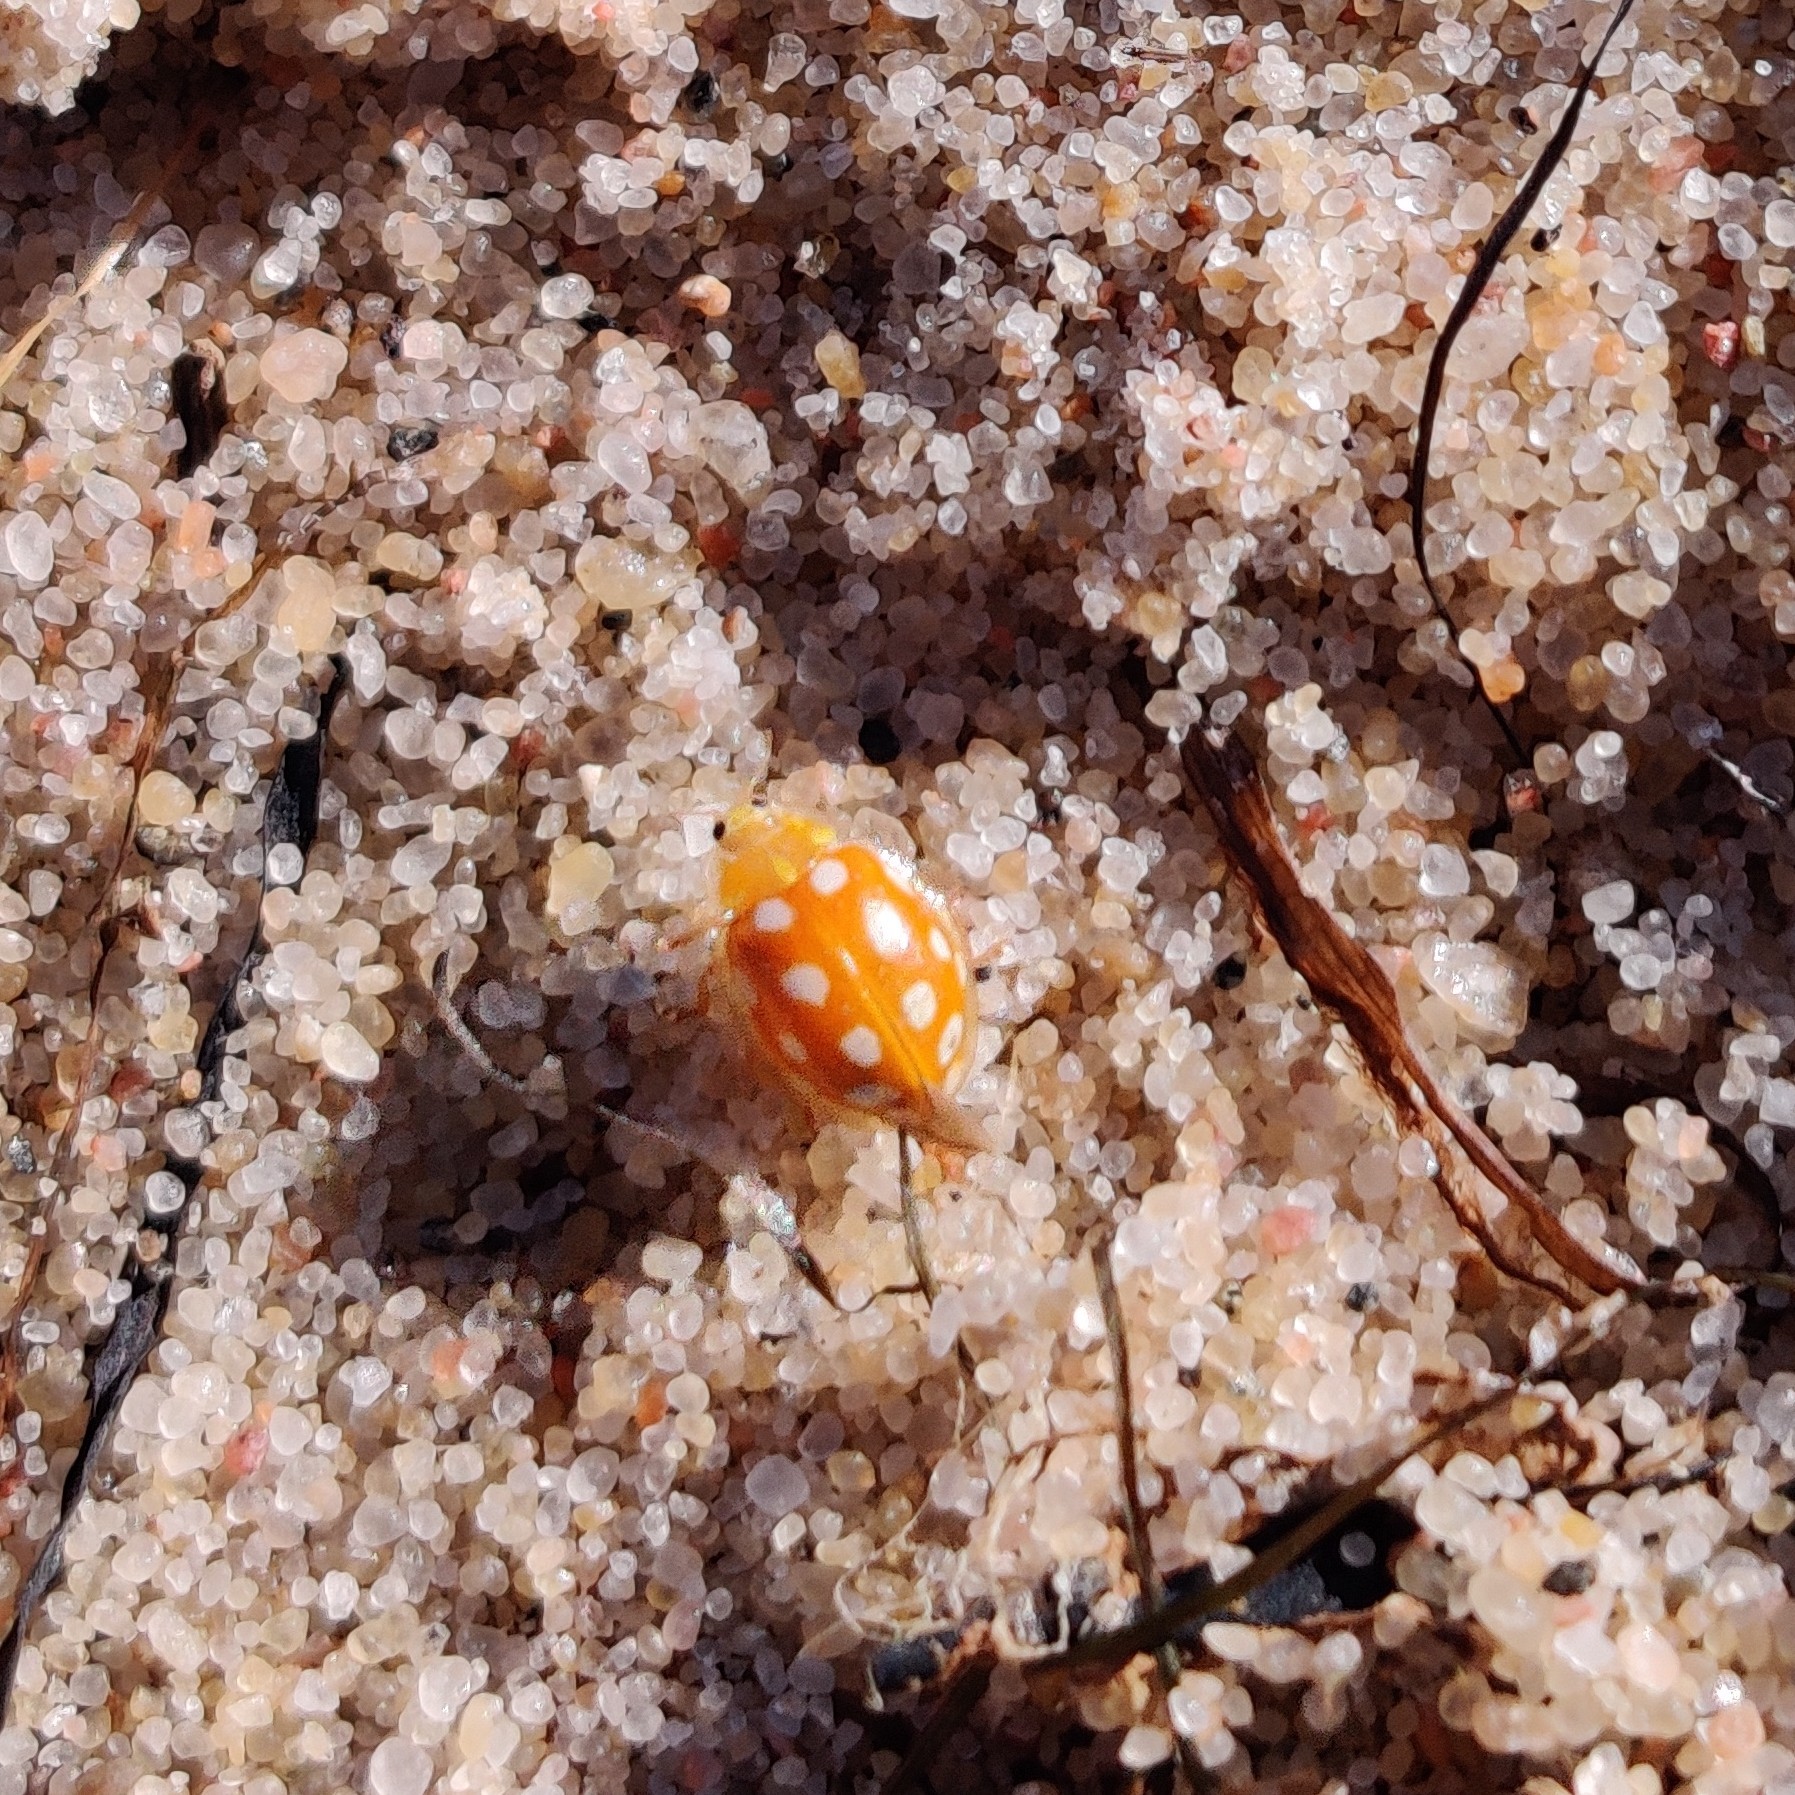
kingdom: Animalia
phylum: Arthropoda
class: Insecta
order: Coleoptera
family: Coccinellidae
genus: Halyzia
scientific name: Halyzia sedecimguttata
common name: Orange ladybird
